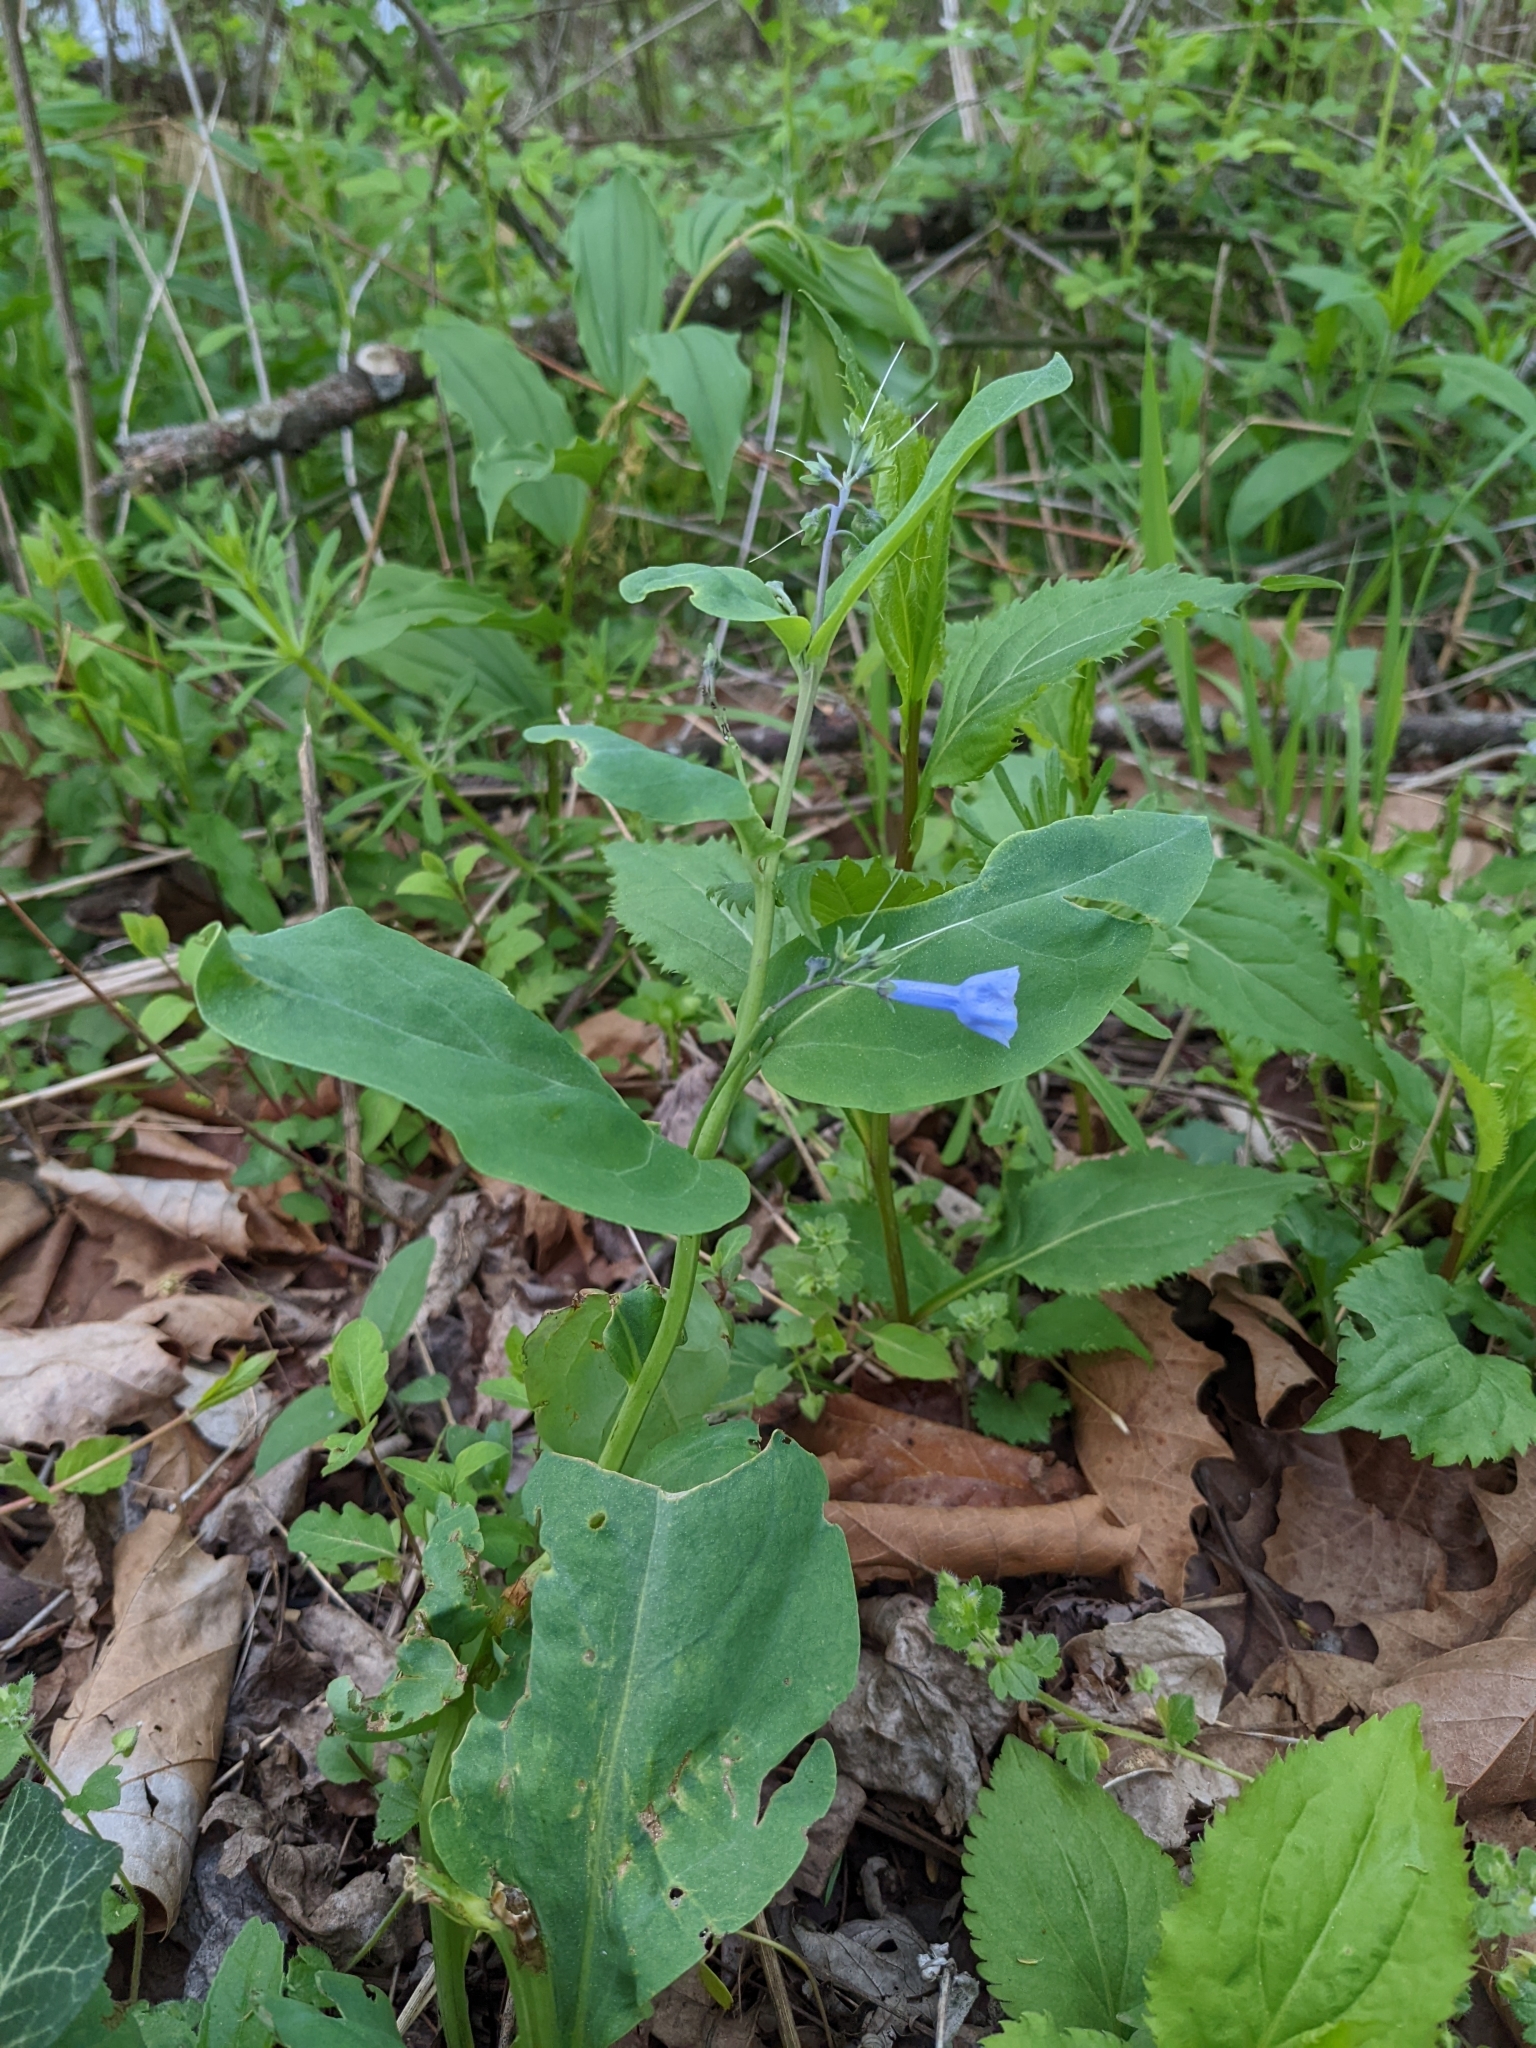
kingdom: Plantae
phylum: Tracheophyta
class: Magnoliopsida
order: Boraginales
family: Boraginaceae
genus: Mertensia
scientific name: Mertensia virginica
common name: Virginia bluebells
